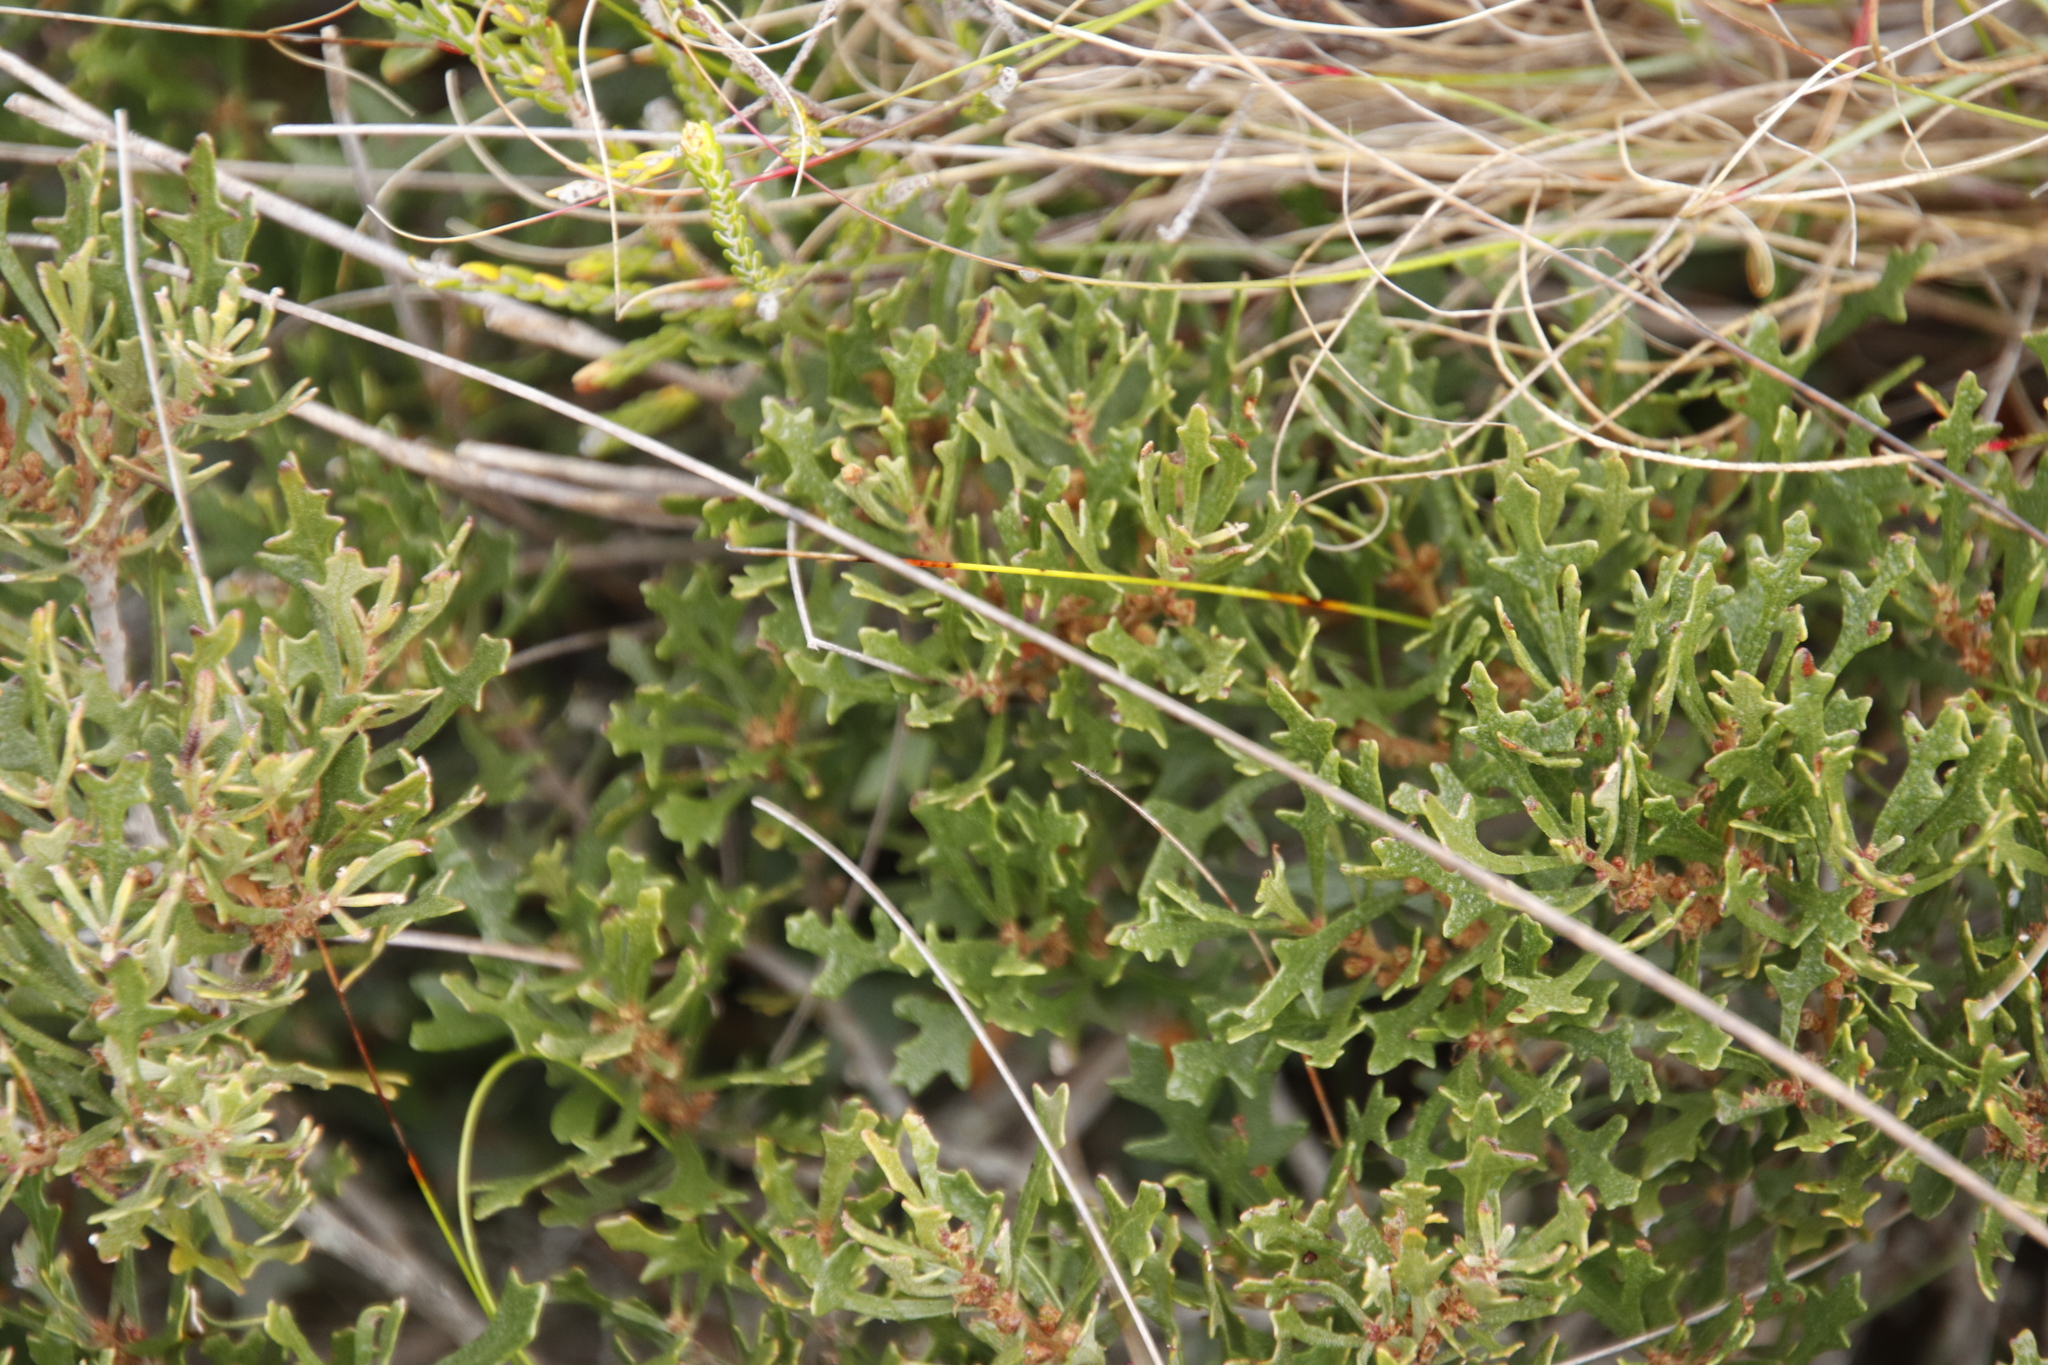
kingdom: Plantae
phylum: Tracheophyta
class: Magnoliopsida
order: Fagales
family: Myricaceae
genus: Morella
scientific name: Morella quercifolia
